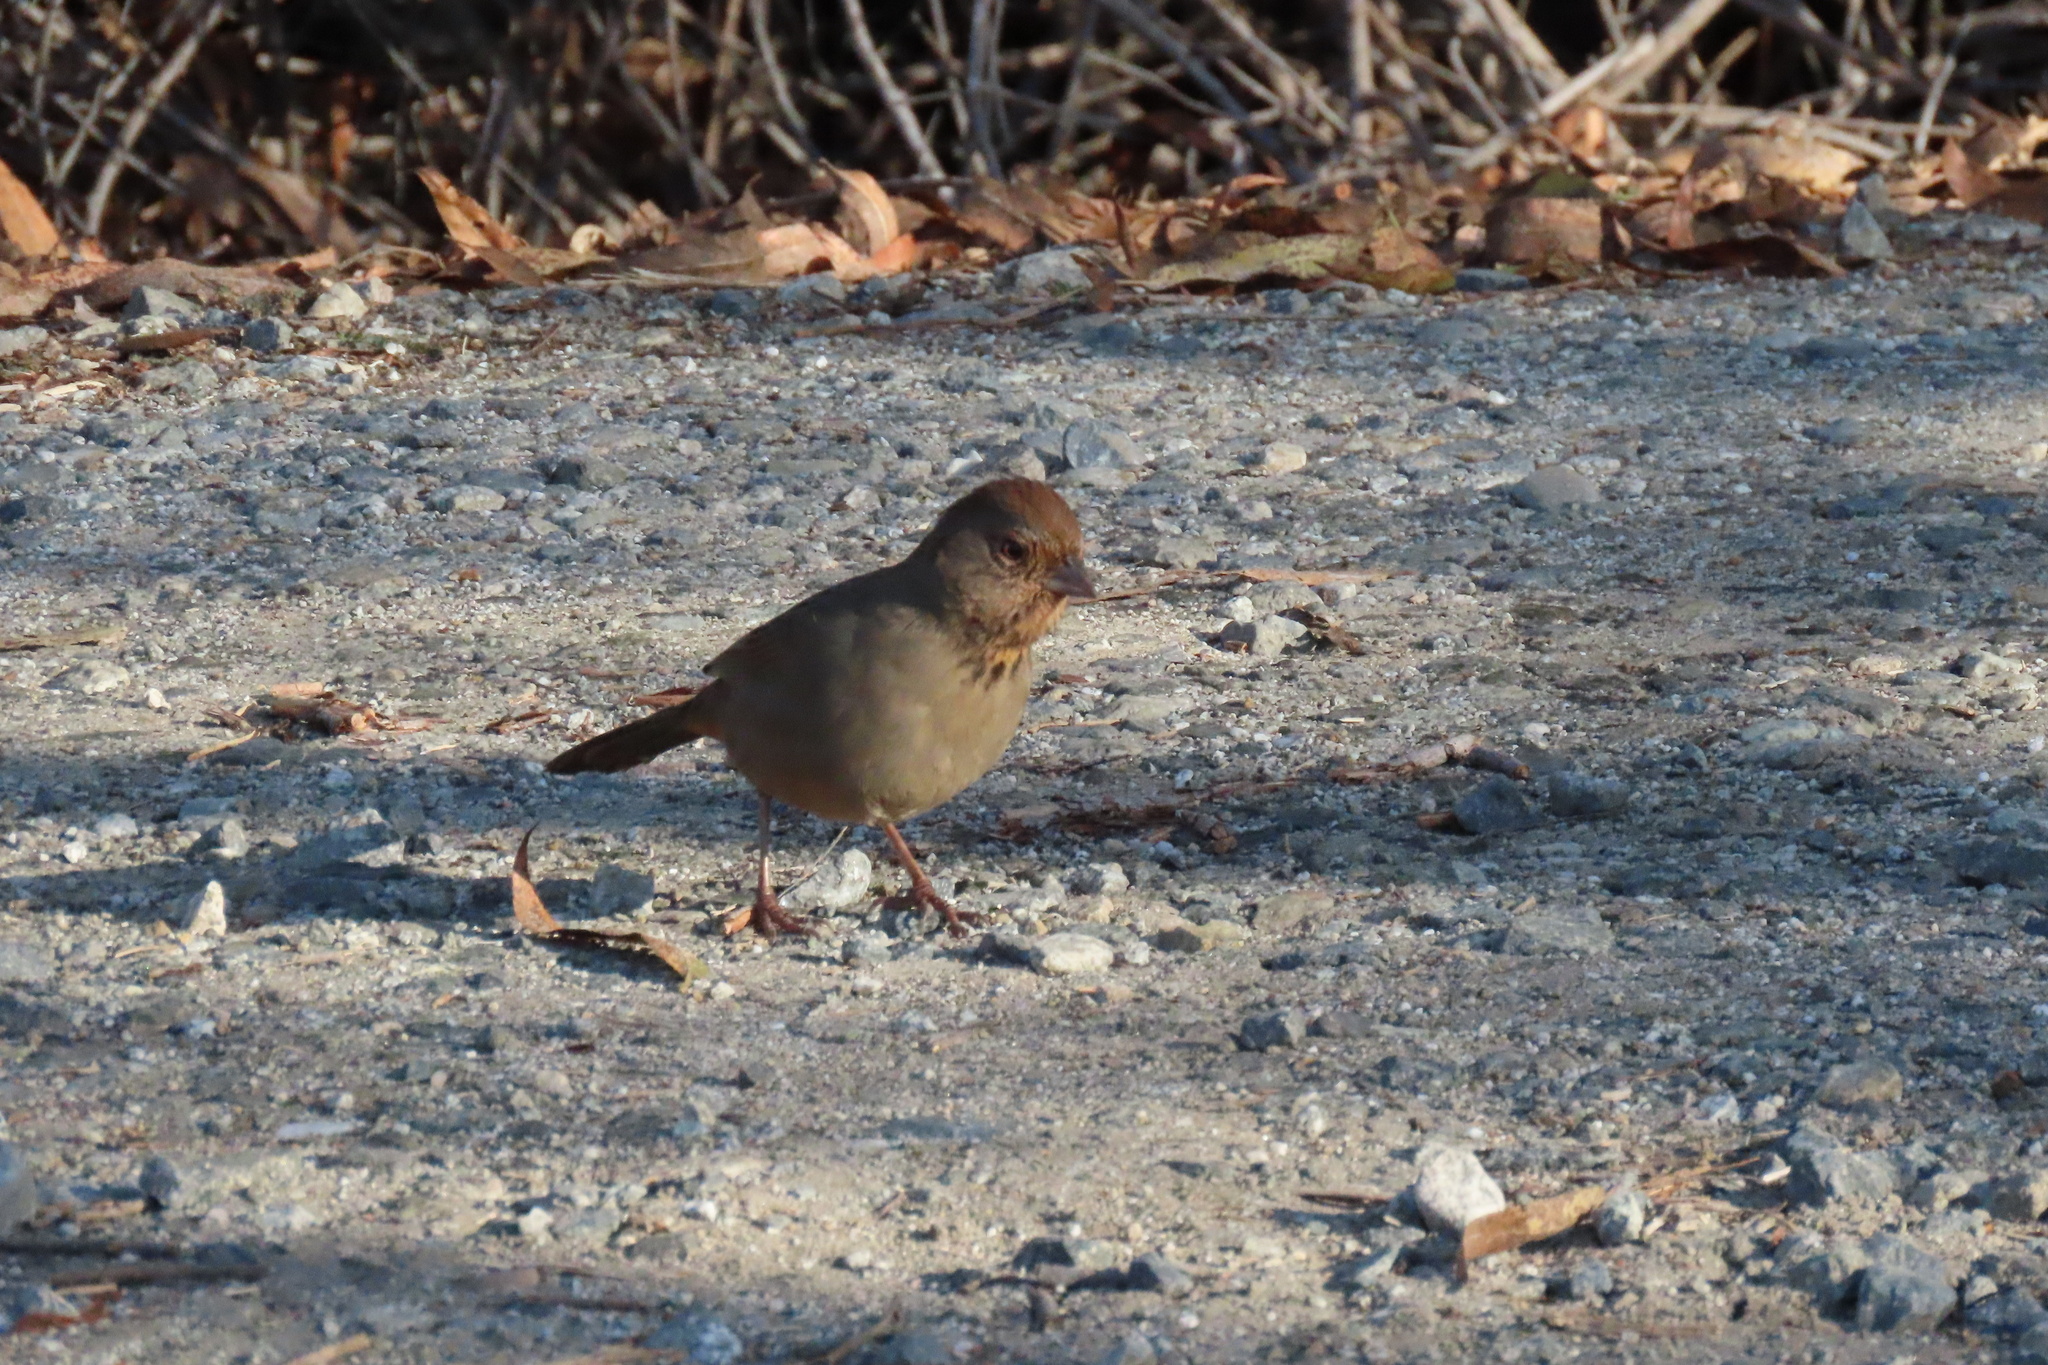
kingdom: Animalia
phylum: Chordata
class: Aves
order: Passeriformes
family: Passerellidae
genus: Melozone
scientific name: Melozone crissalis
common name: California towhee
